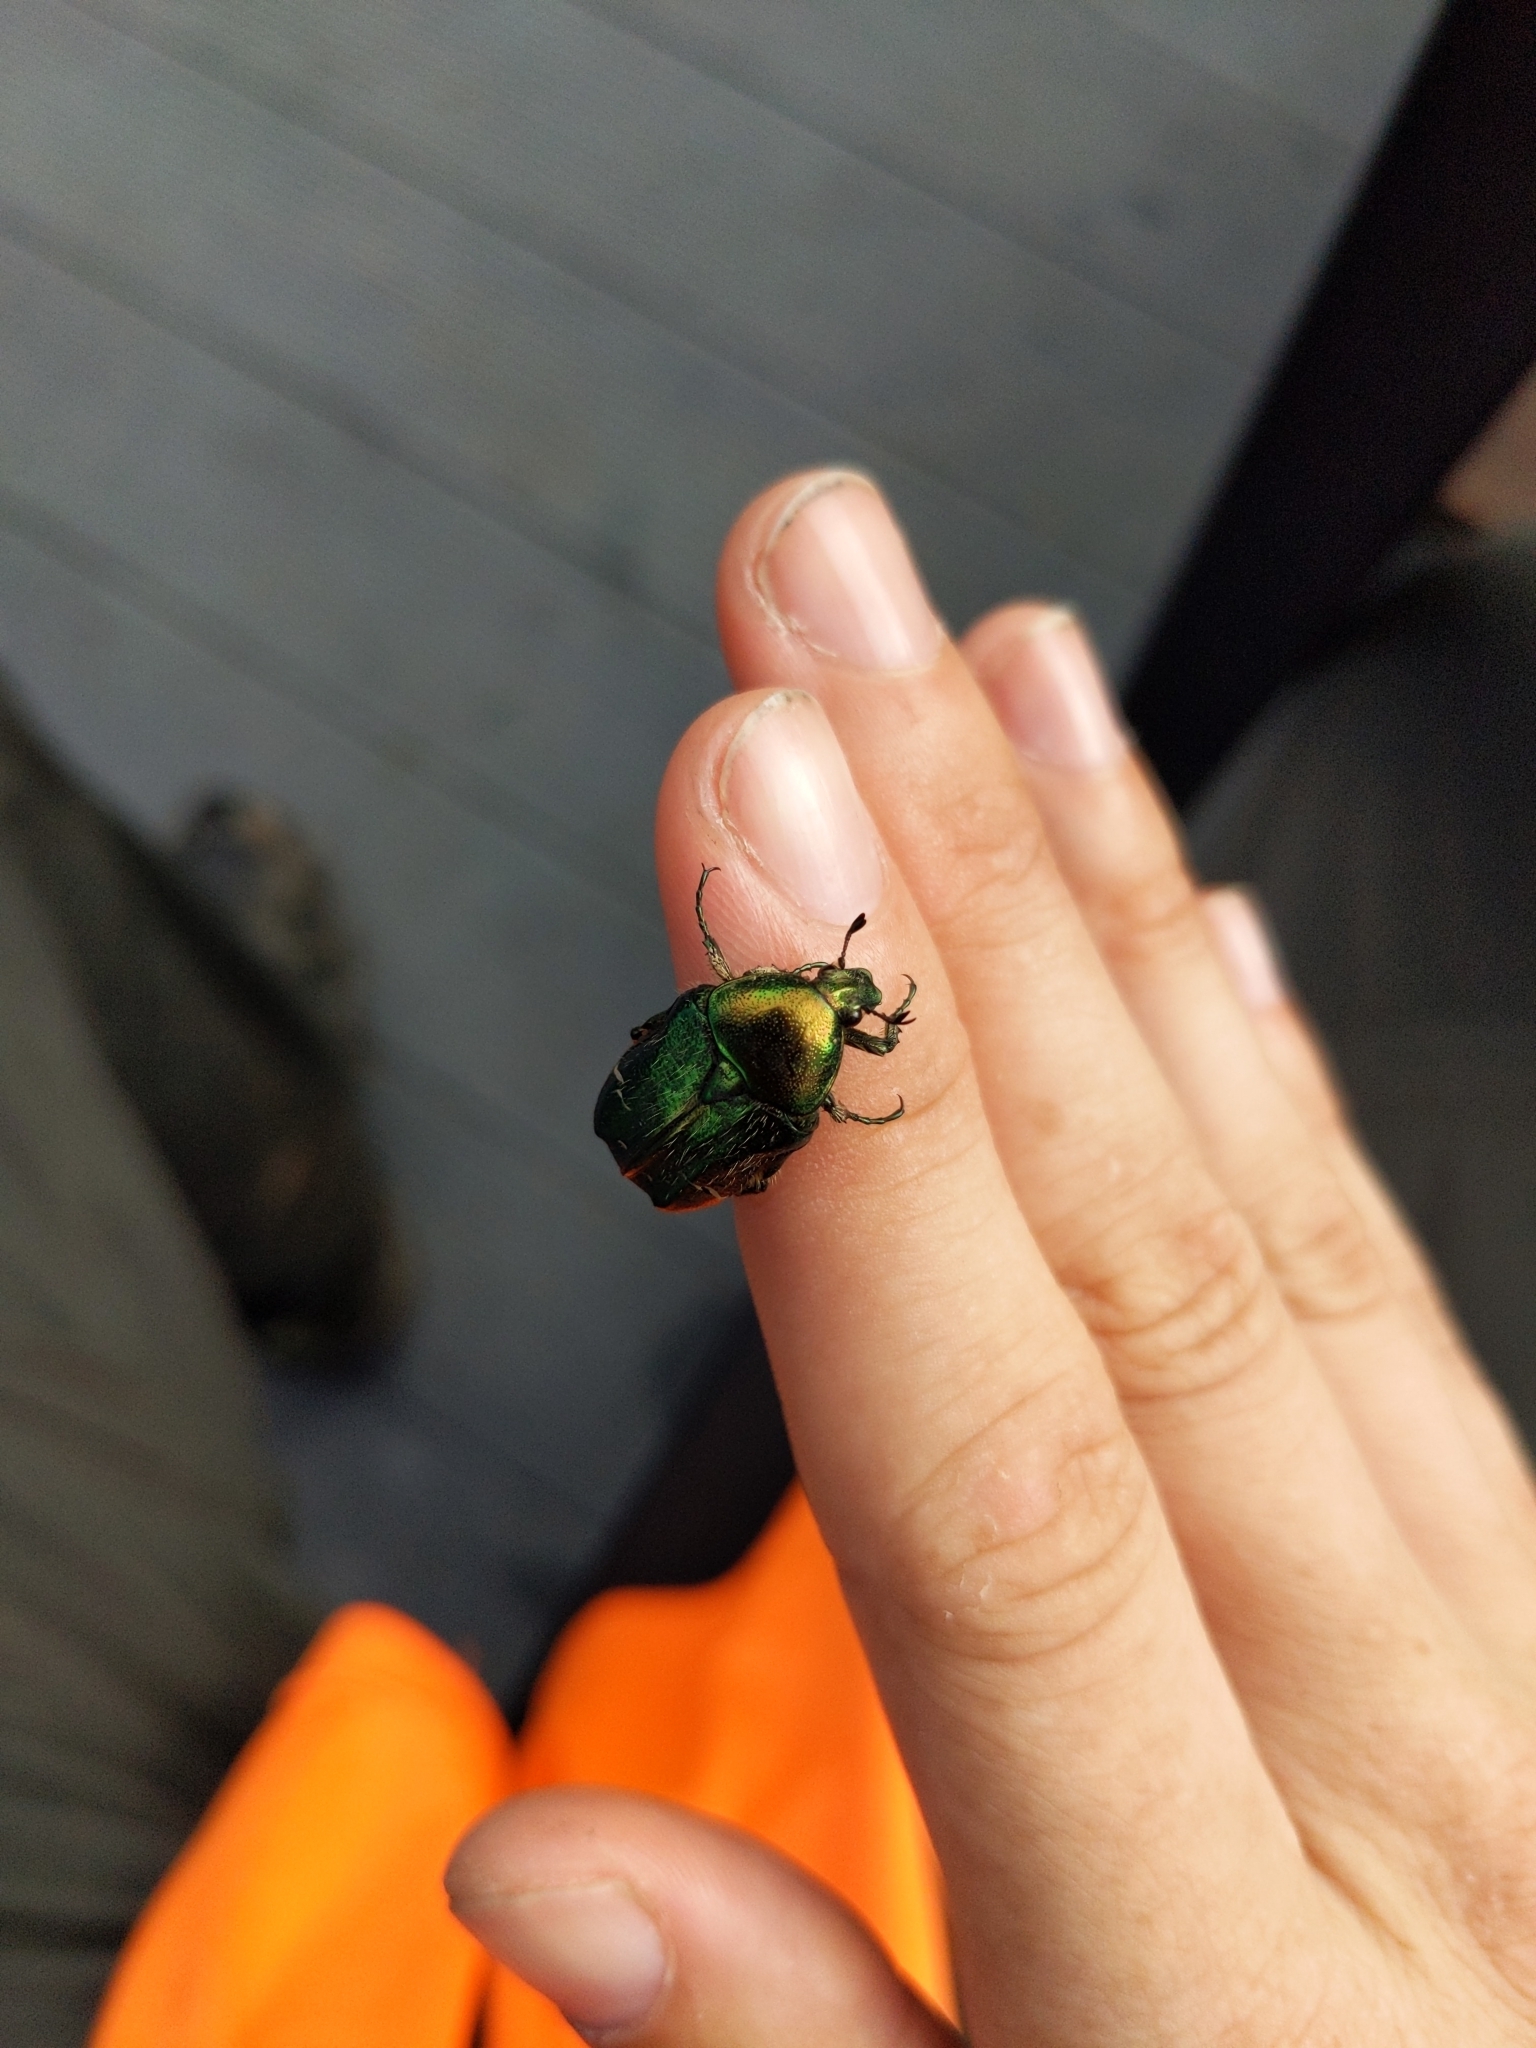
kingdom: Animalia
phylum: Arthropoda
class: Insecta
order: Coleoptera
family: Scarabaeidae
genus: Cetonia
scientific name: Cetonia aurata
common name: Rose chafer
